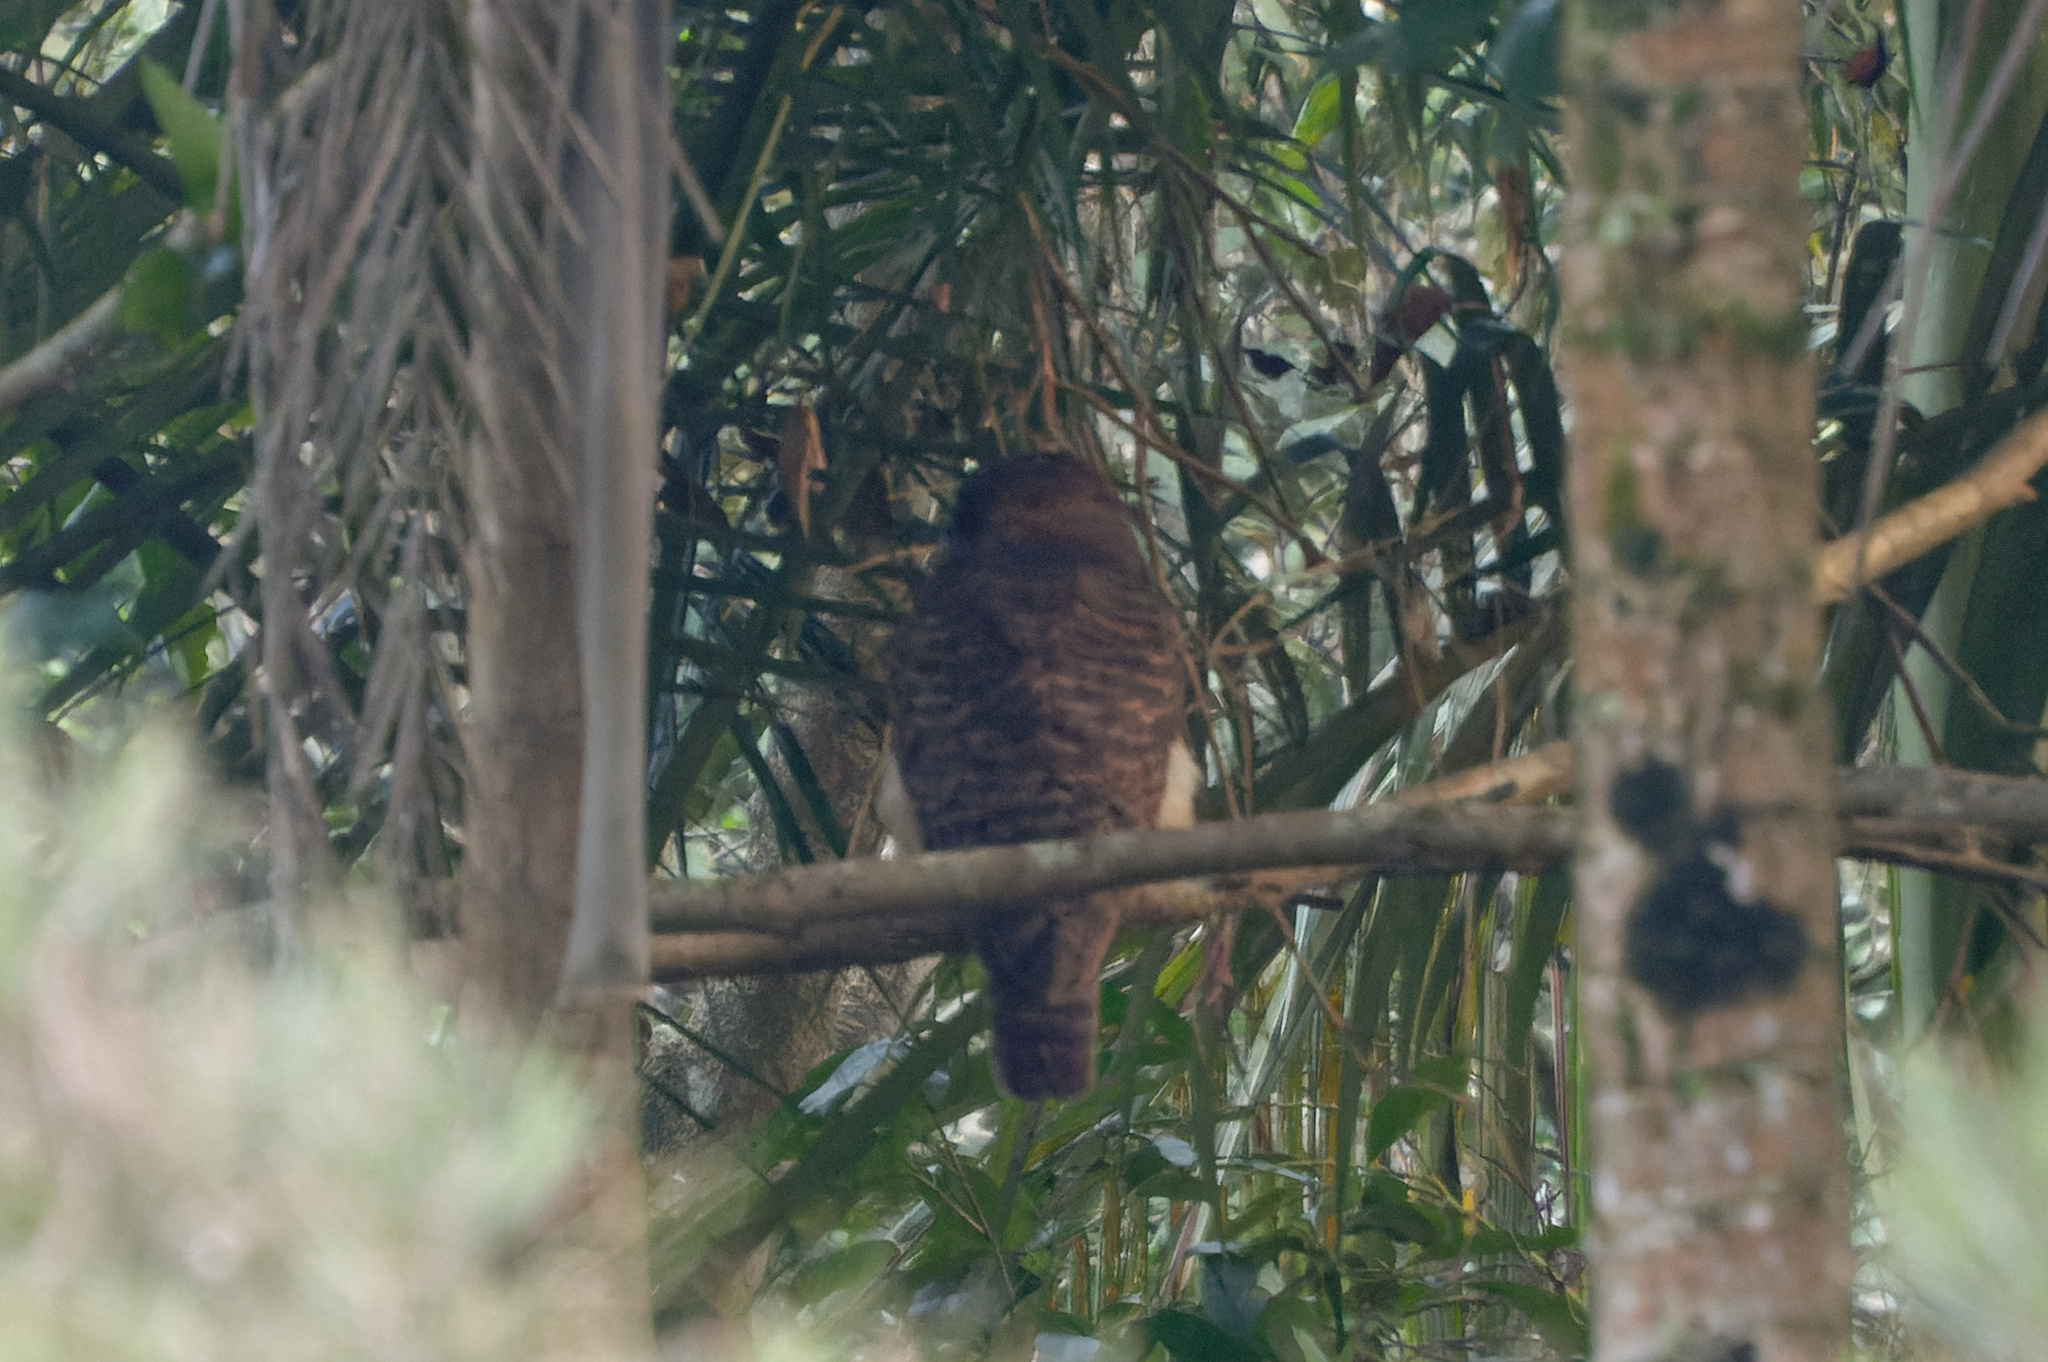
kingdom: Animalia
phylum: Chordata
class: Aves
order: Strigiformes
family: Strigidae
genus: Ninox
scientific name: Ninox rufa
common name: Rufous owl
